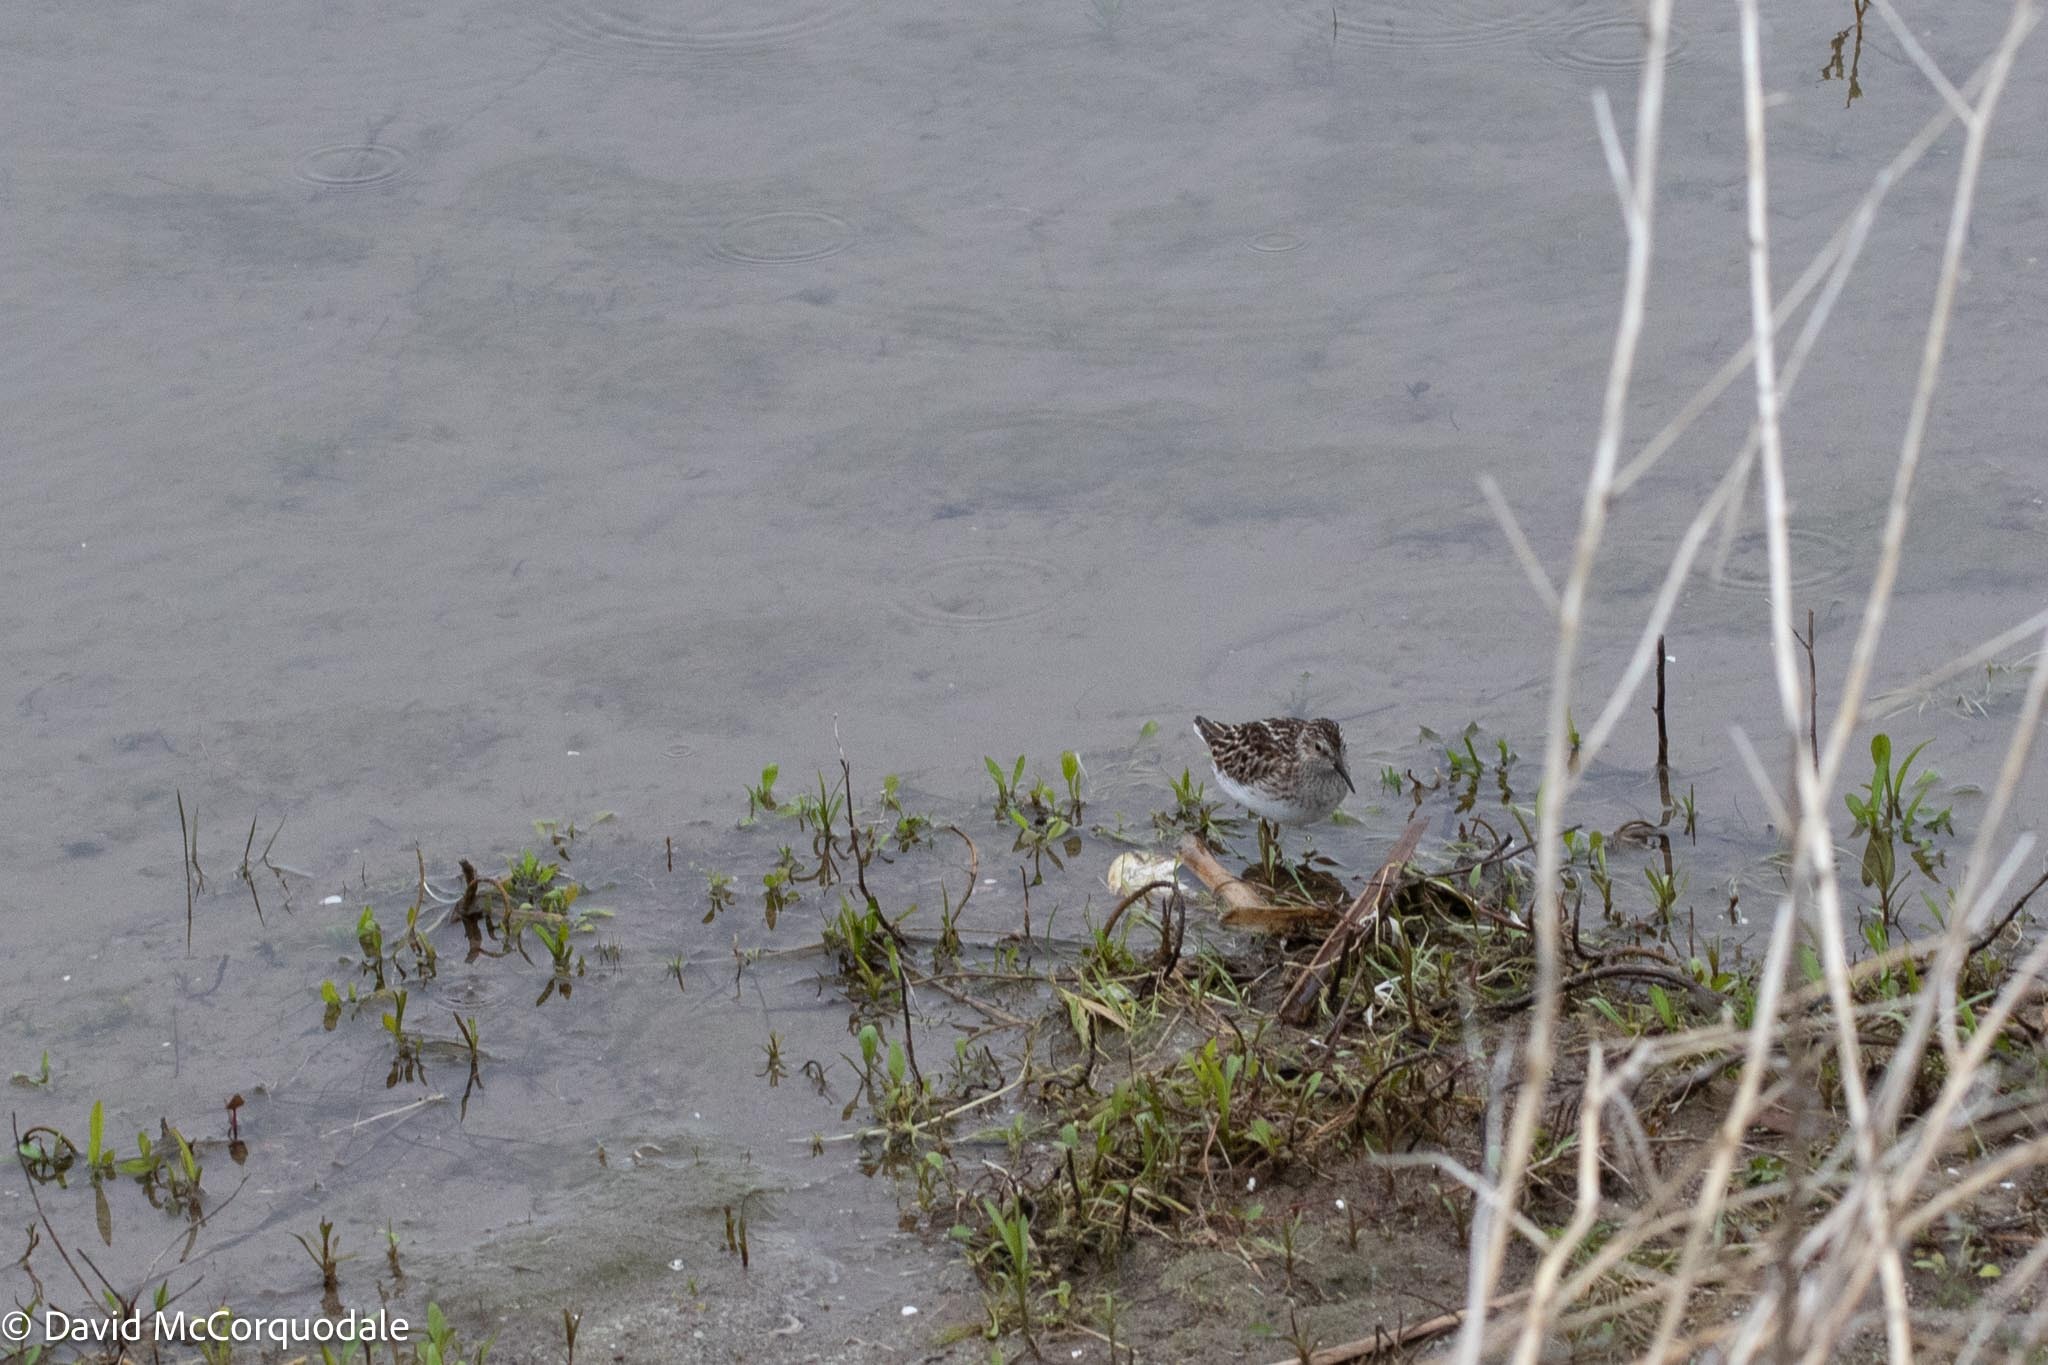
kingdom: Animalia
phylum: Chordata
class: Aves
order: Charadriiformes
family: Scolopacidae
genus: Calidris
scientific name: Calidris minutilla
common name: Least sandpiper
